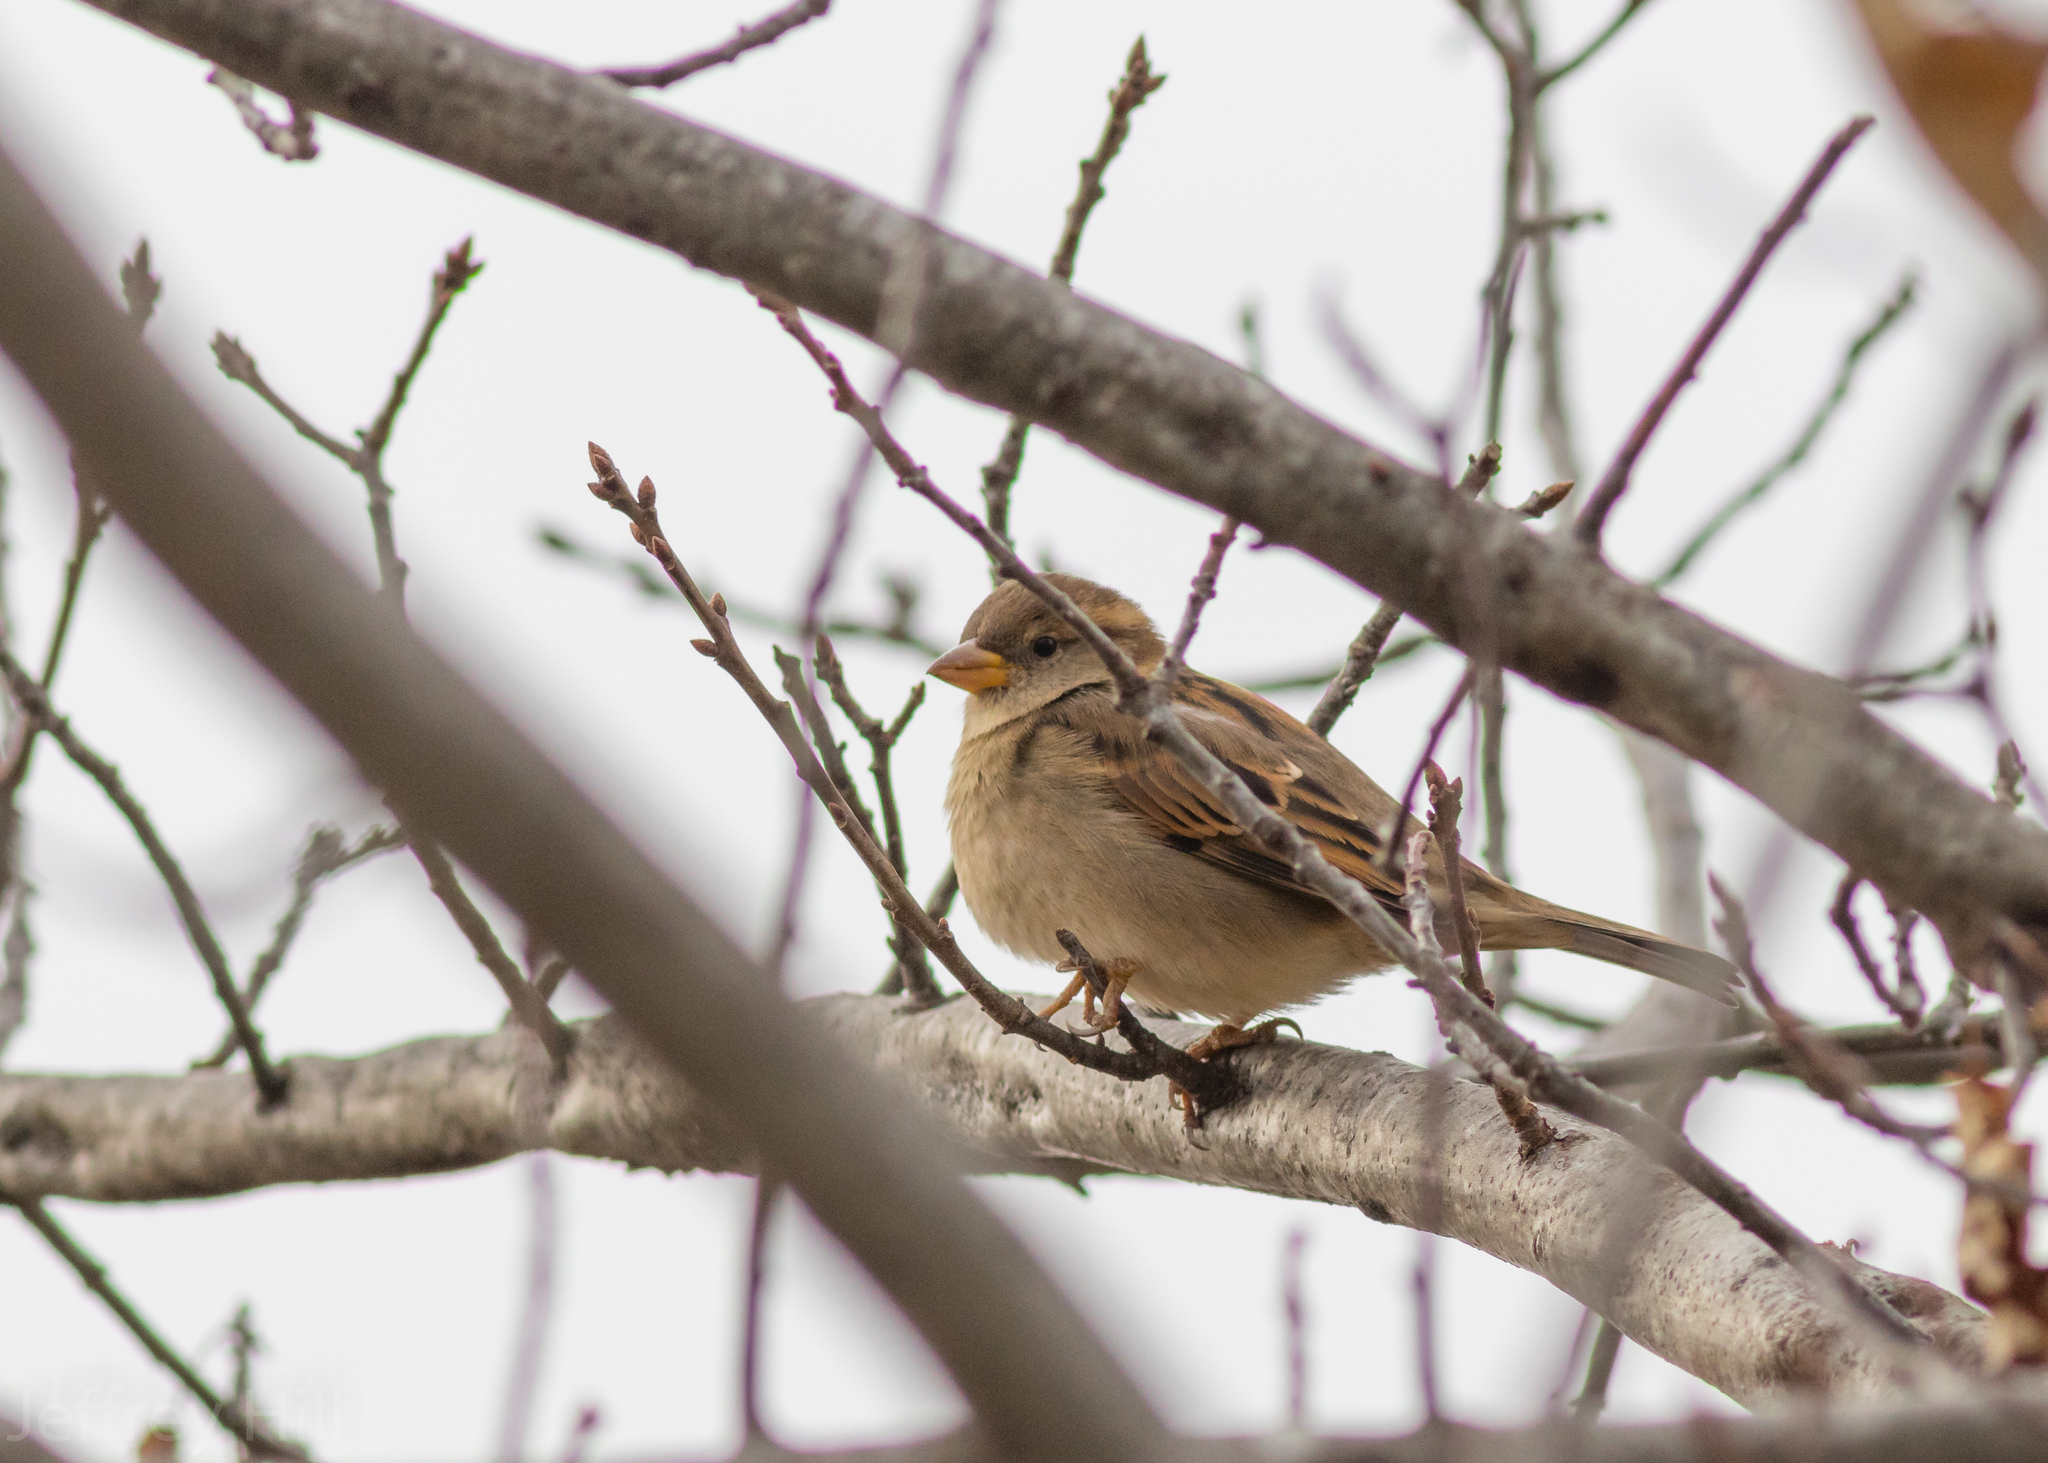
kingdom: Animalia
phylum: Chordata
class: Aves
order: Passeriformes
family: Passeridae
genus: Passer
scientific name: Passer domesticus
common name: House sparrow
